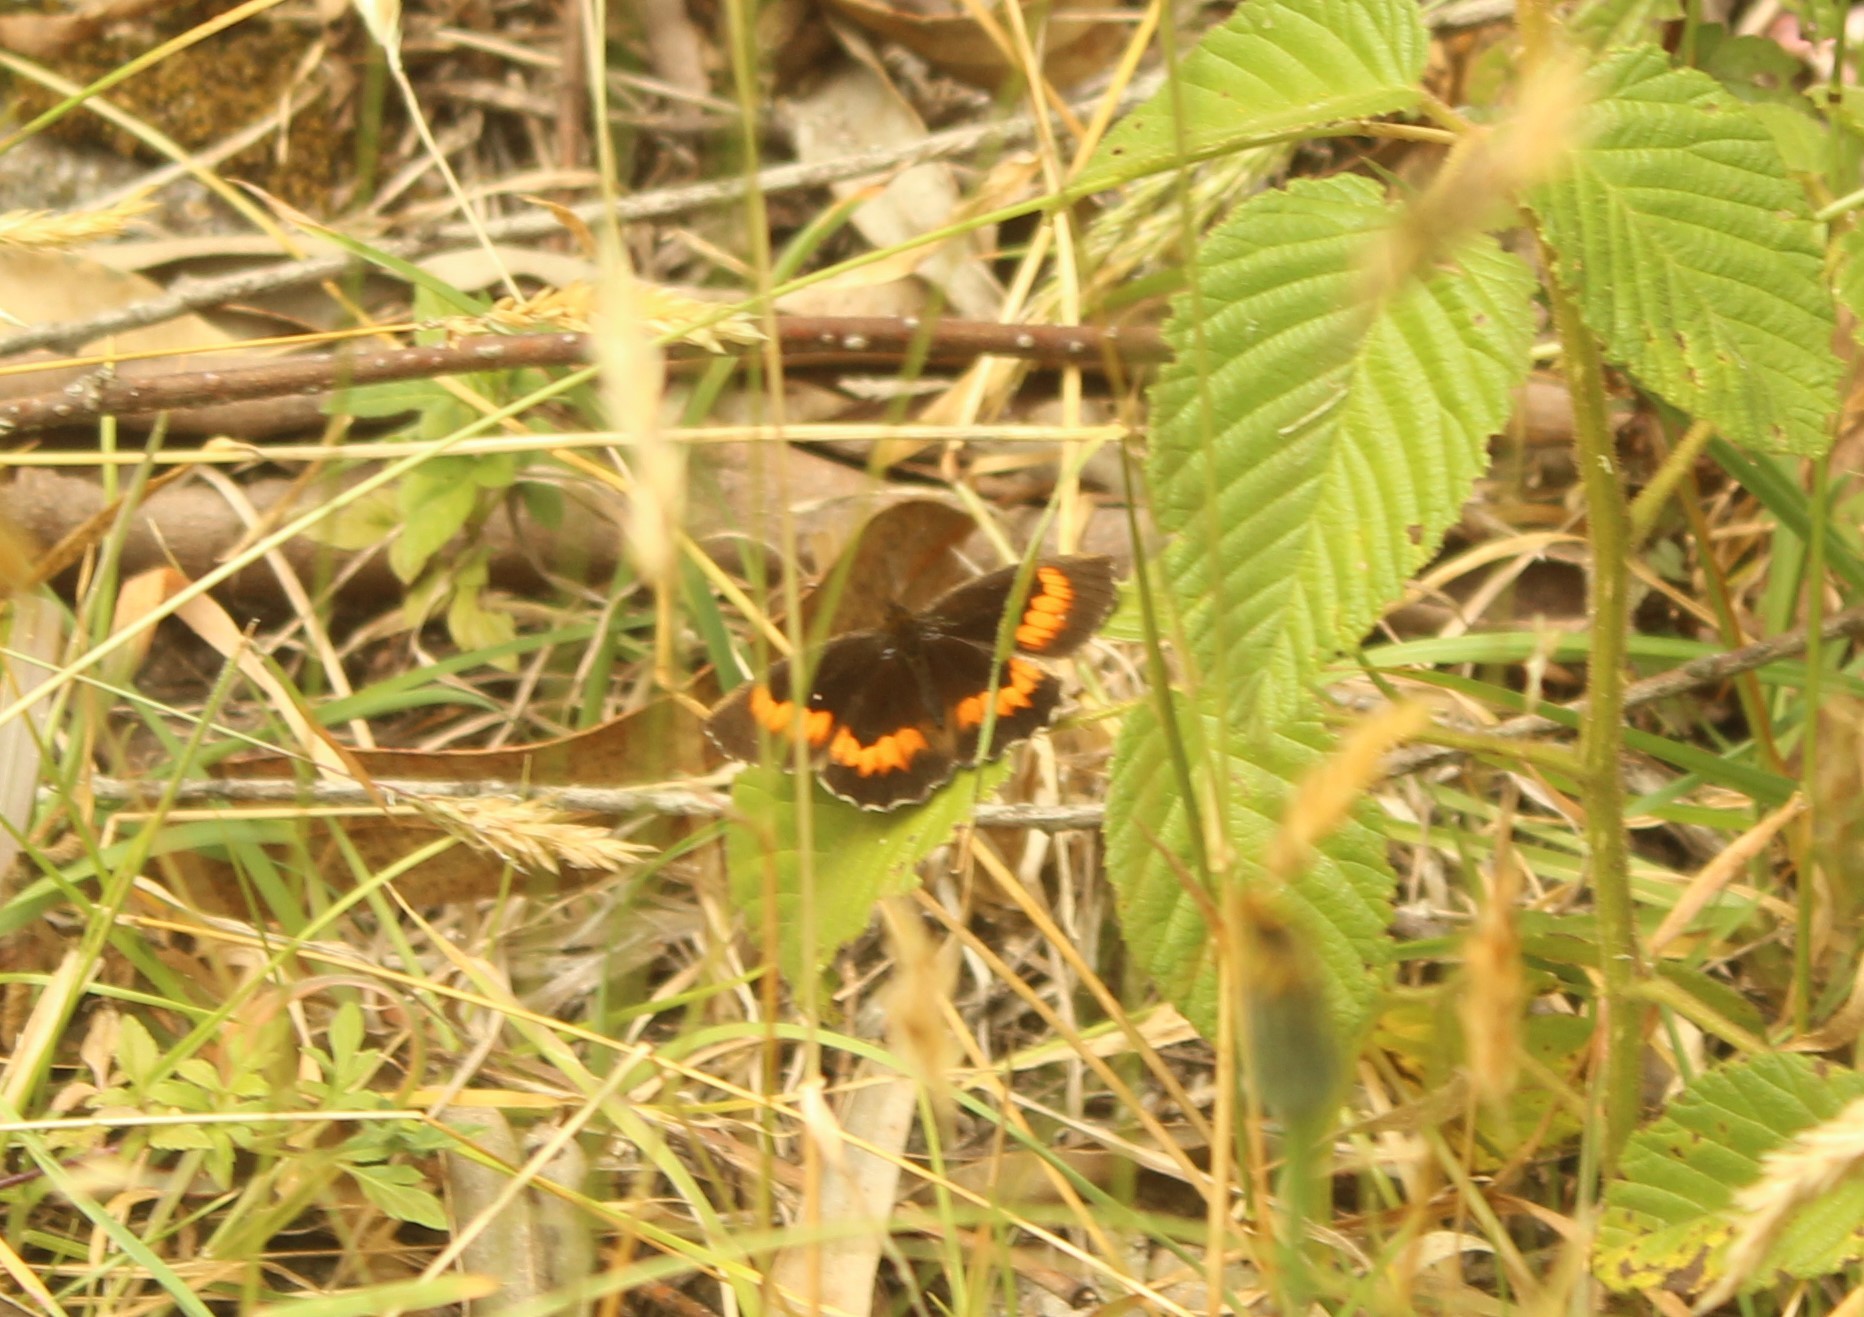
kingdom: Animalia
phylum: Arthropoda
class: Insecta
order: Lepidoptera
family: Nymphalidae
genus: Pedaliodes
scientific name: Pedaliodes phaea
